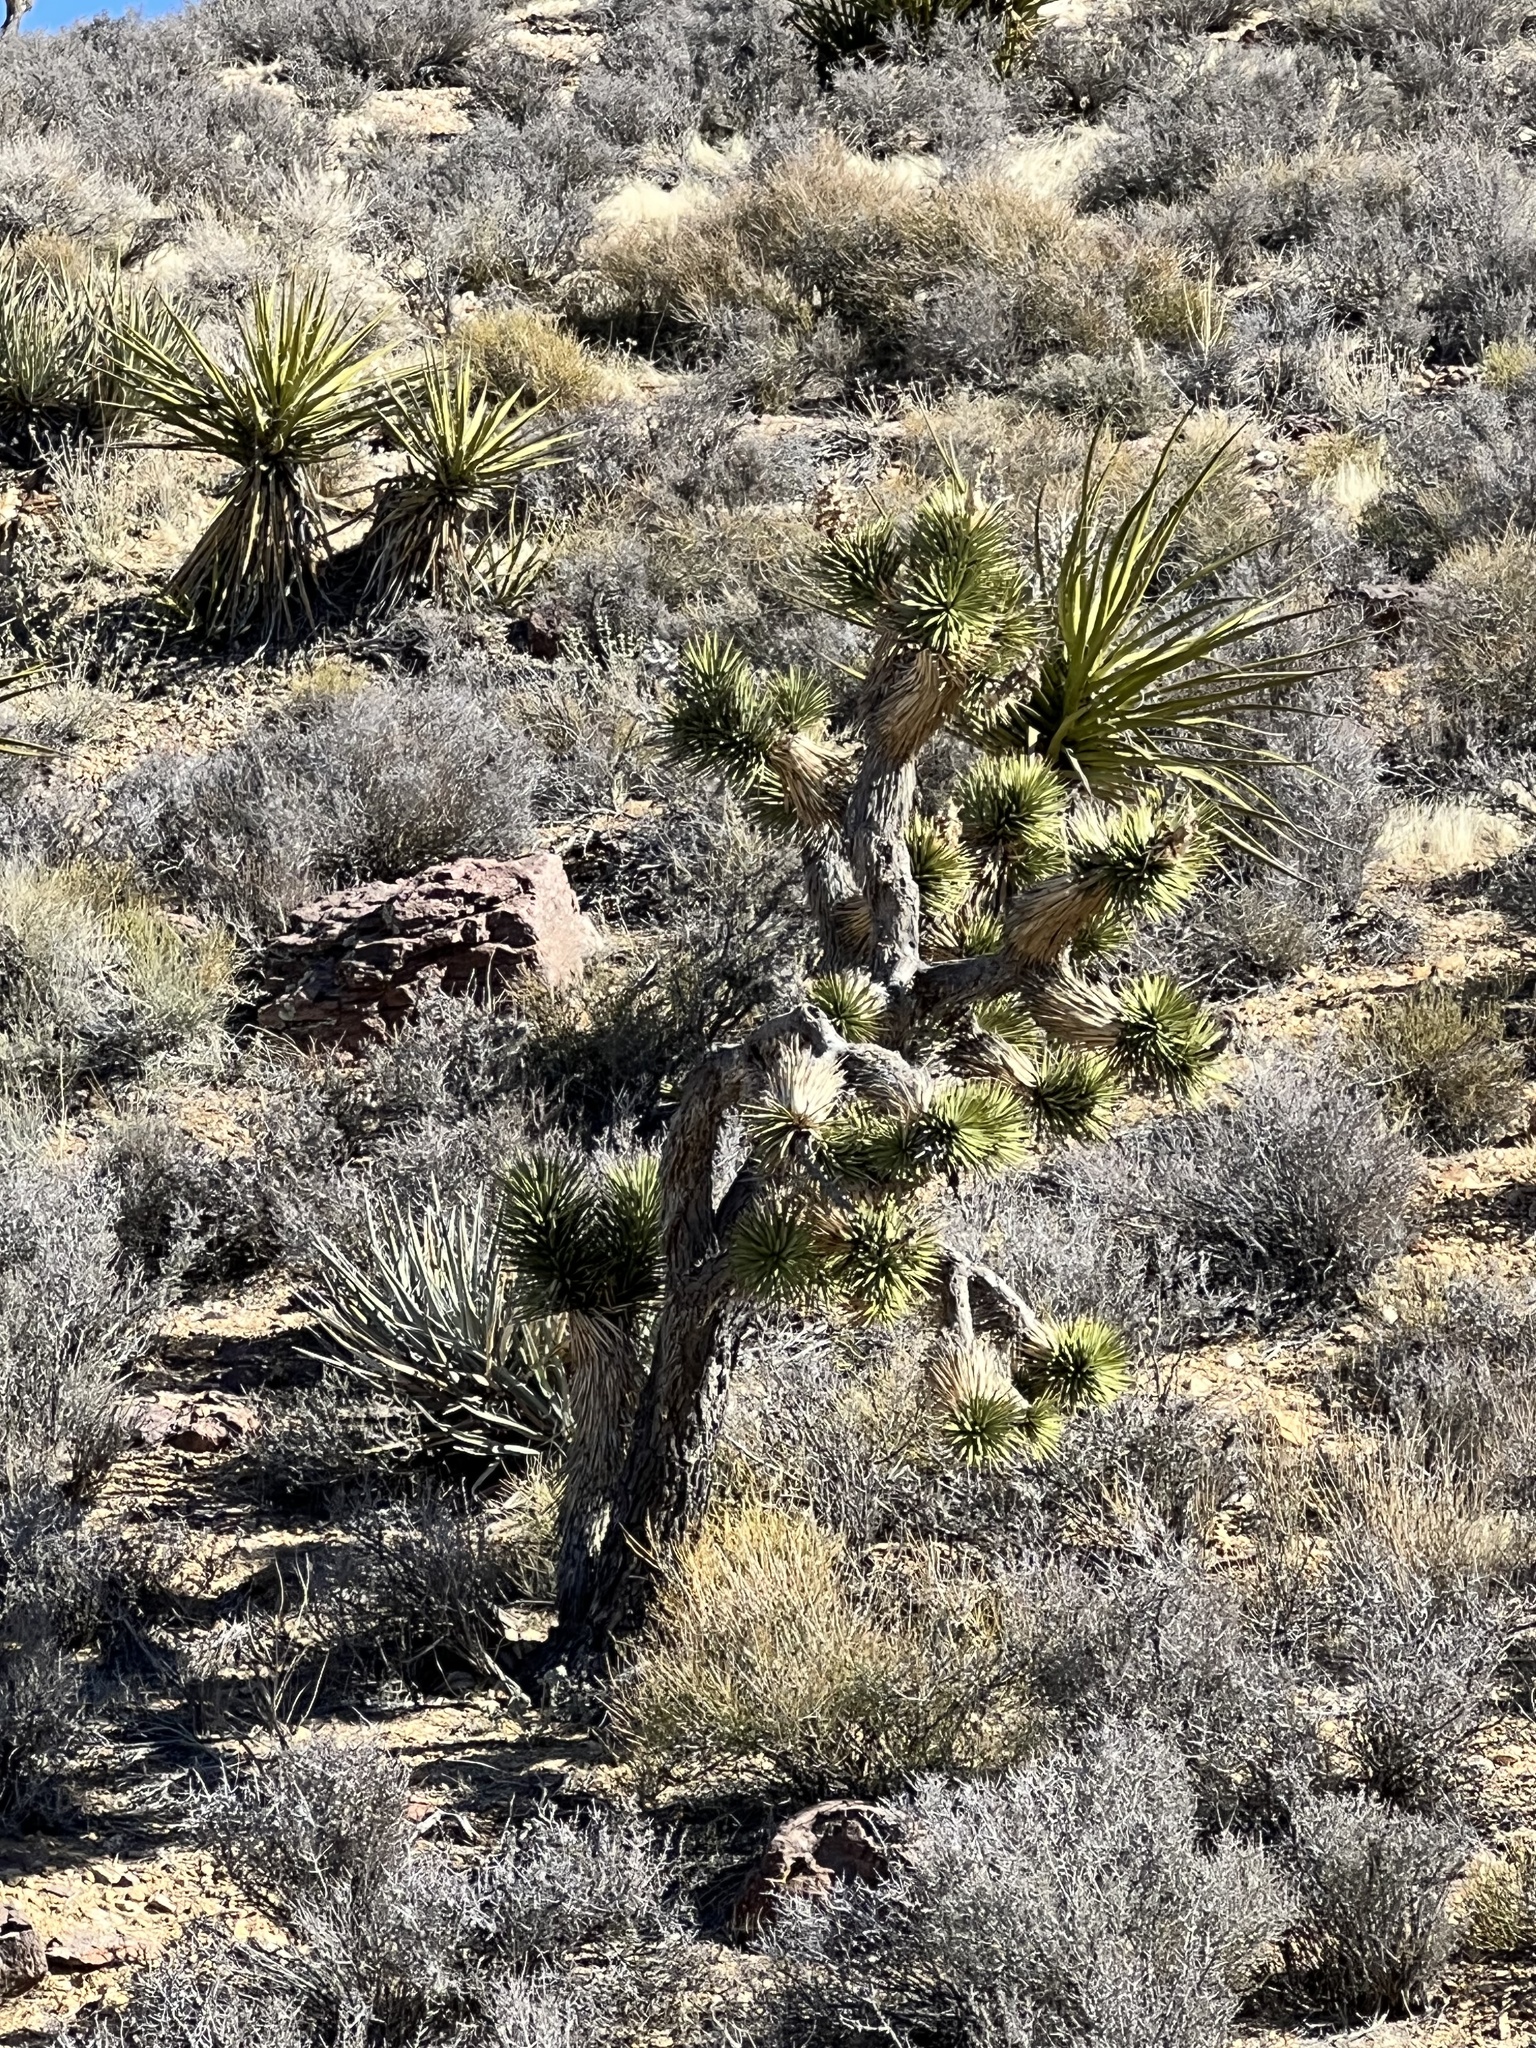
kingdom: Plantae
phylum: Tracheophyta
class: Liliopsida
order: Asparagales
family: Asparagaceae
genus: Yucca
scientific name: Yucca brevifolia
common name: Joshua tree
